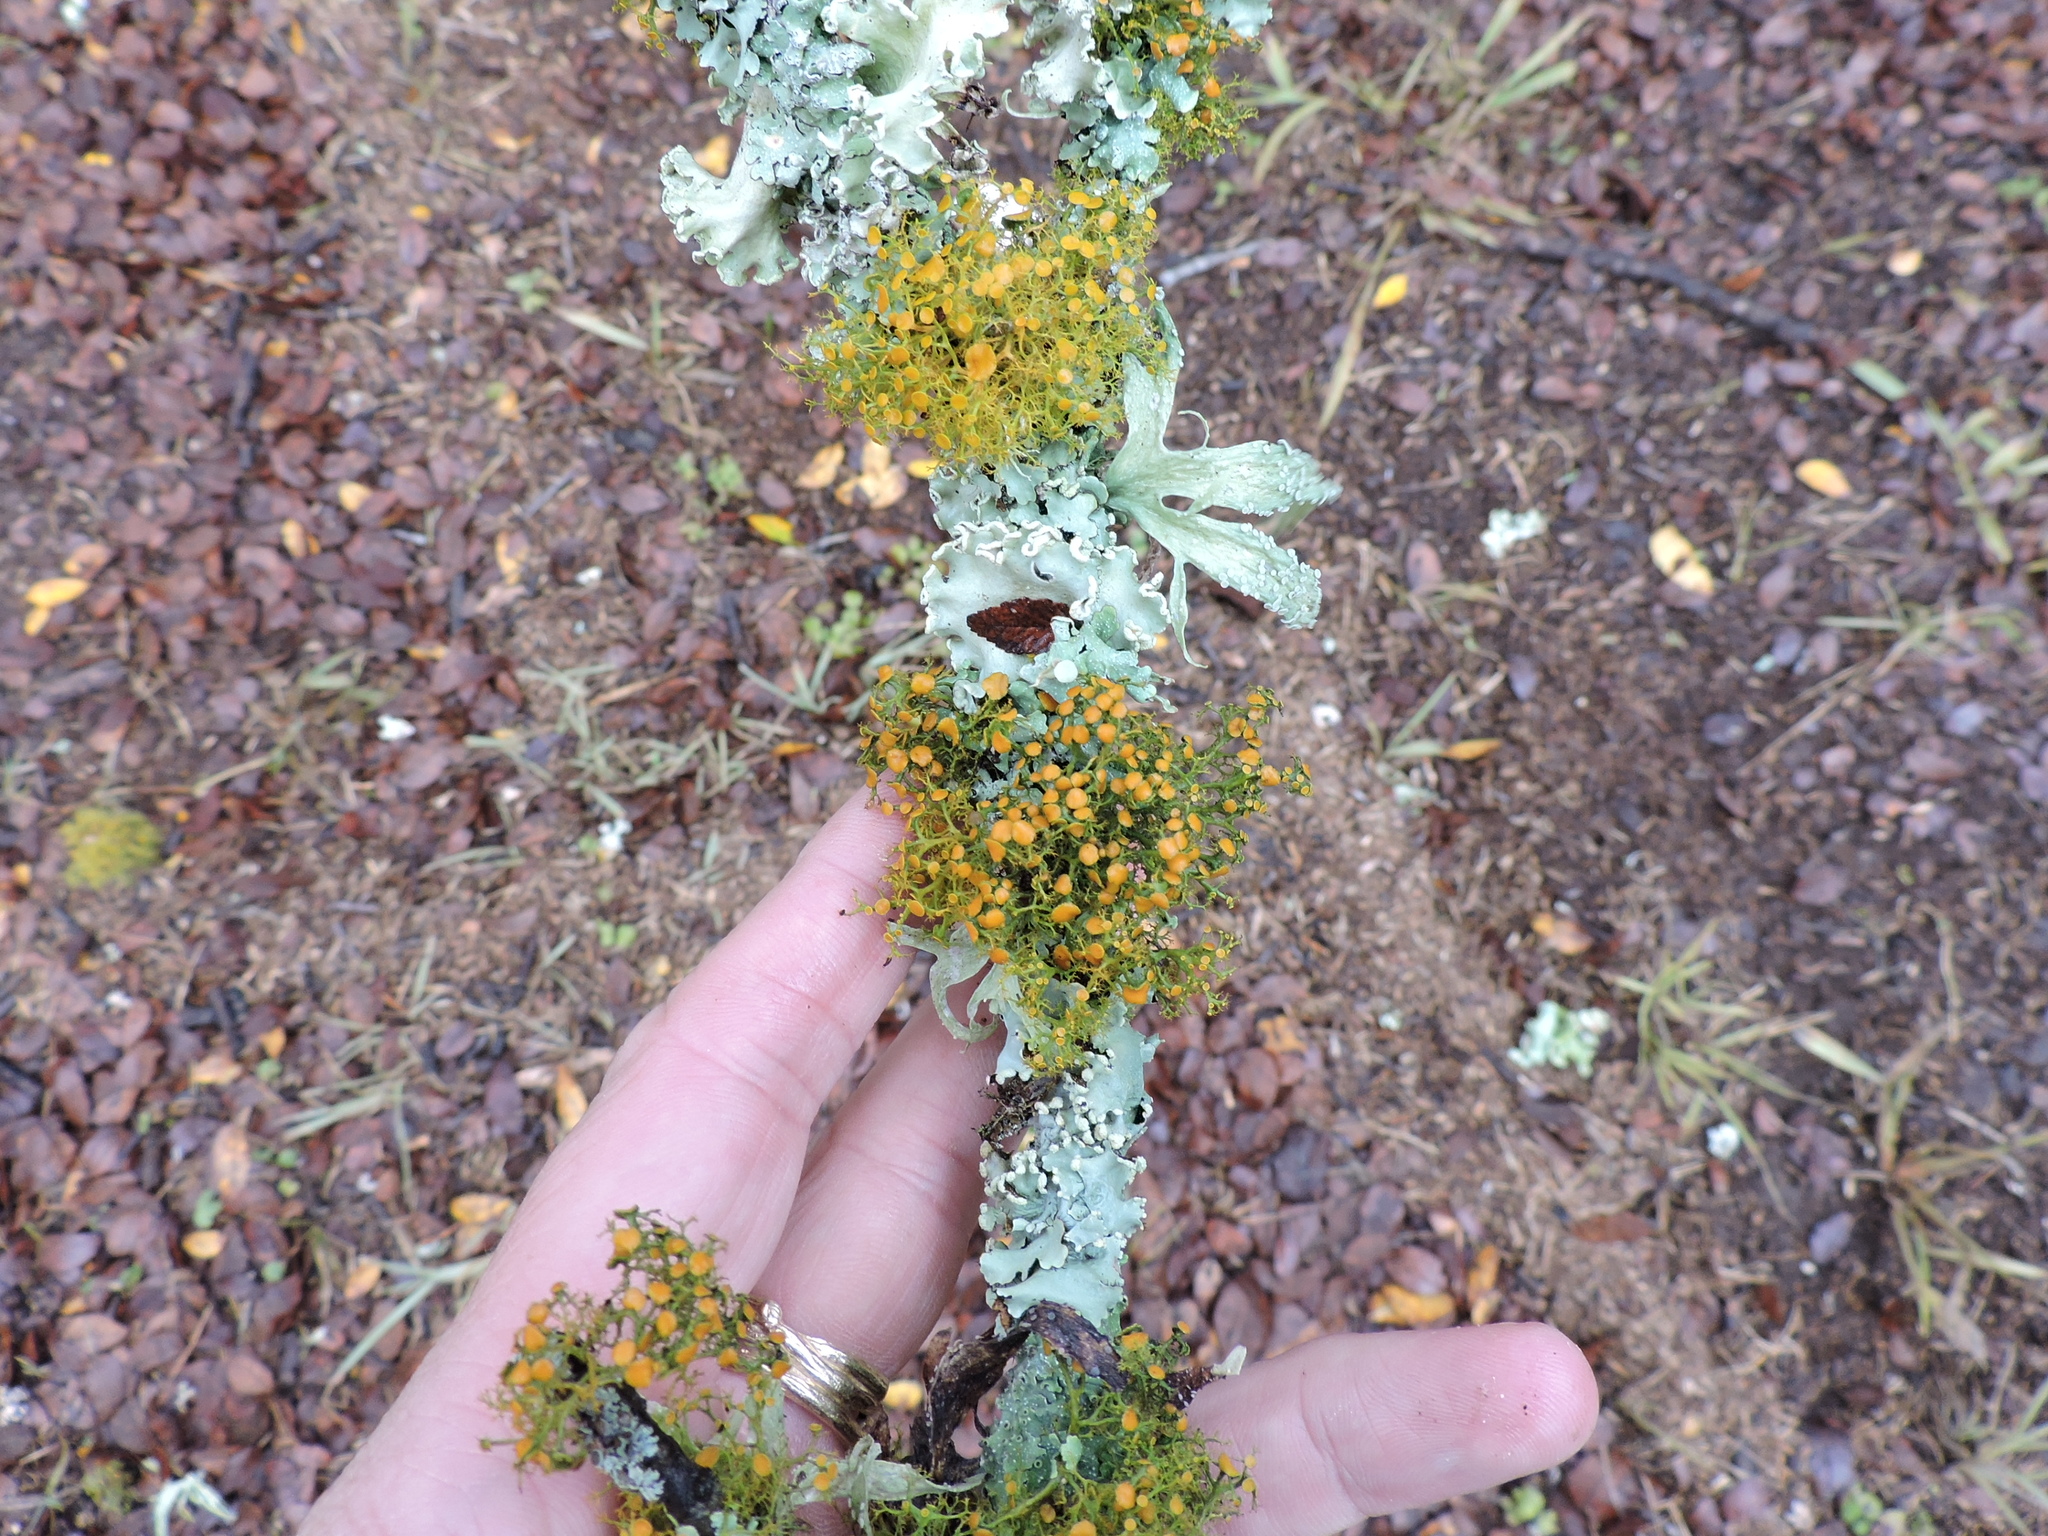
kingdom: Fungi
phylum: Ascomycota
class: Lecanoromycetes
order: Teloschistales
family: Teloschistaceae
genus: Teloschistes
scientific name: Teloschistes exilis
